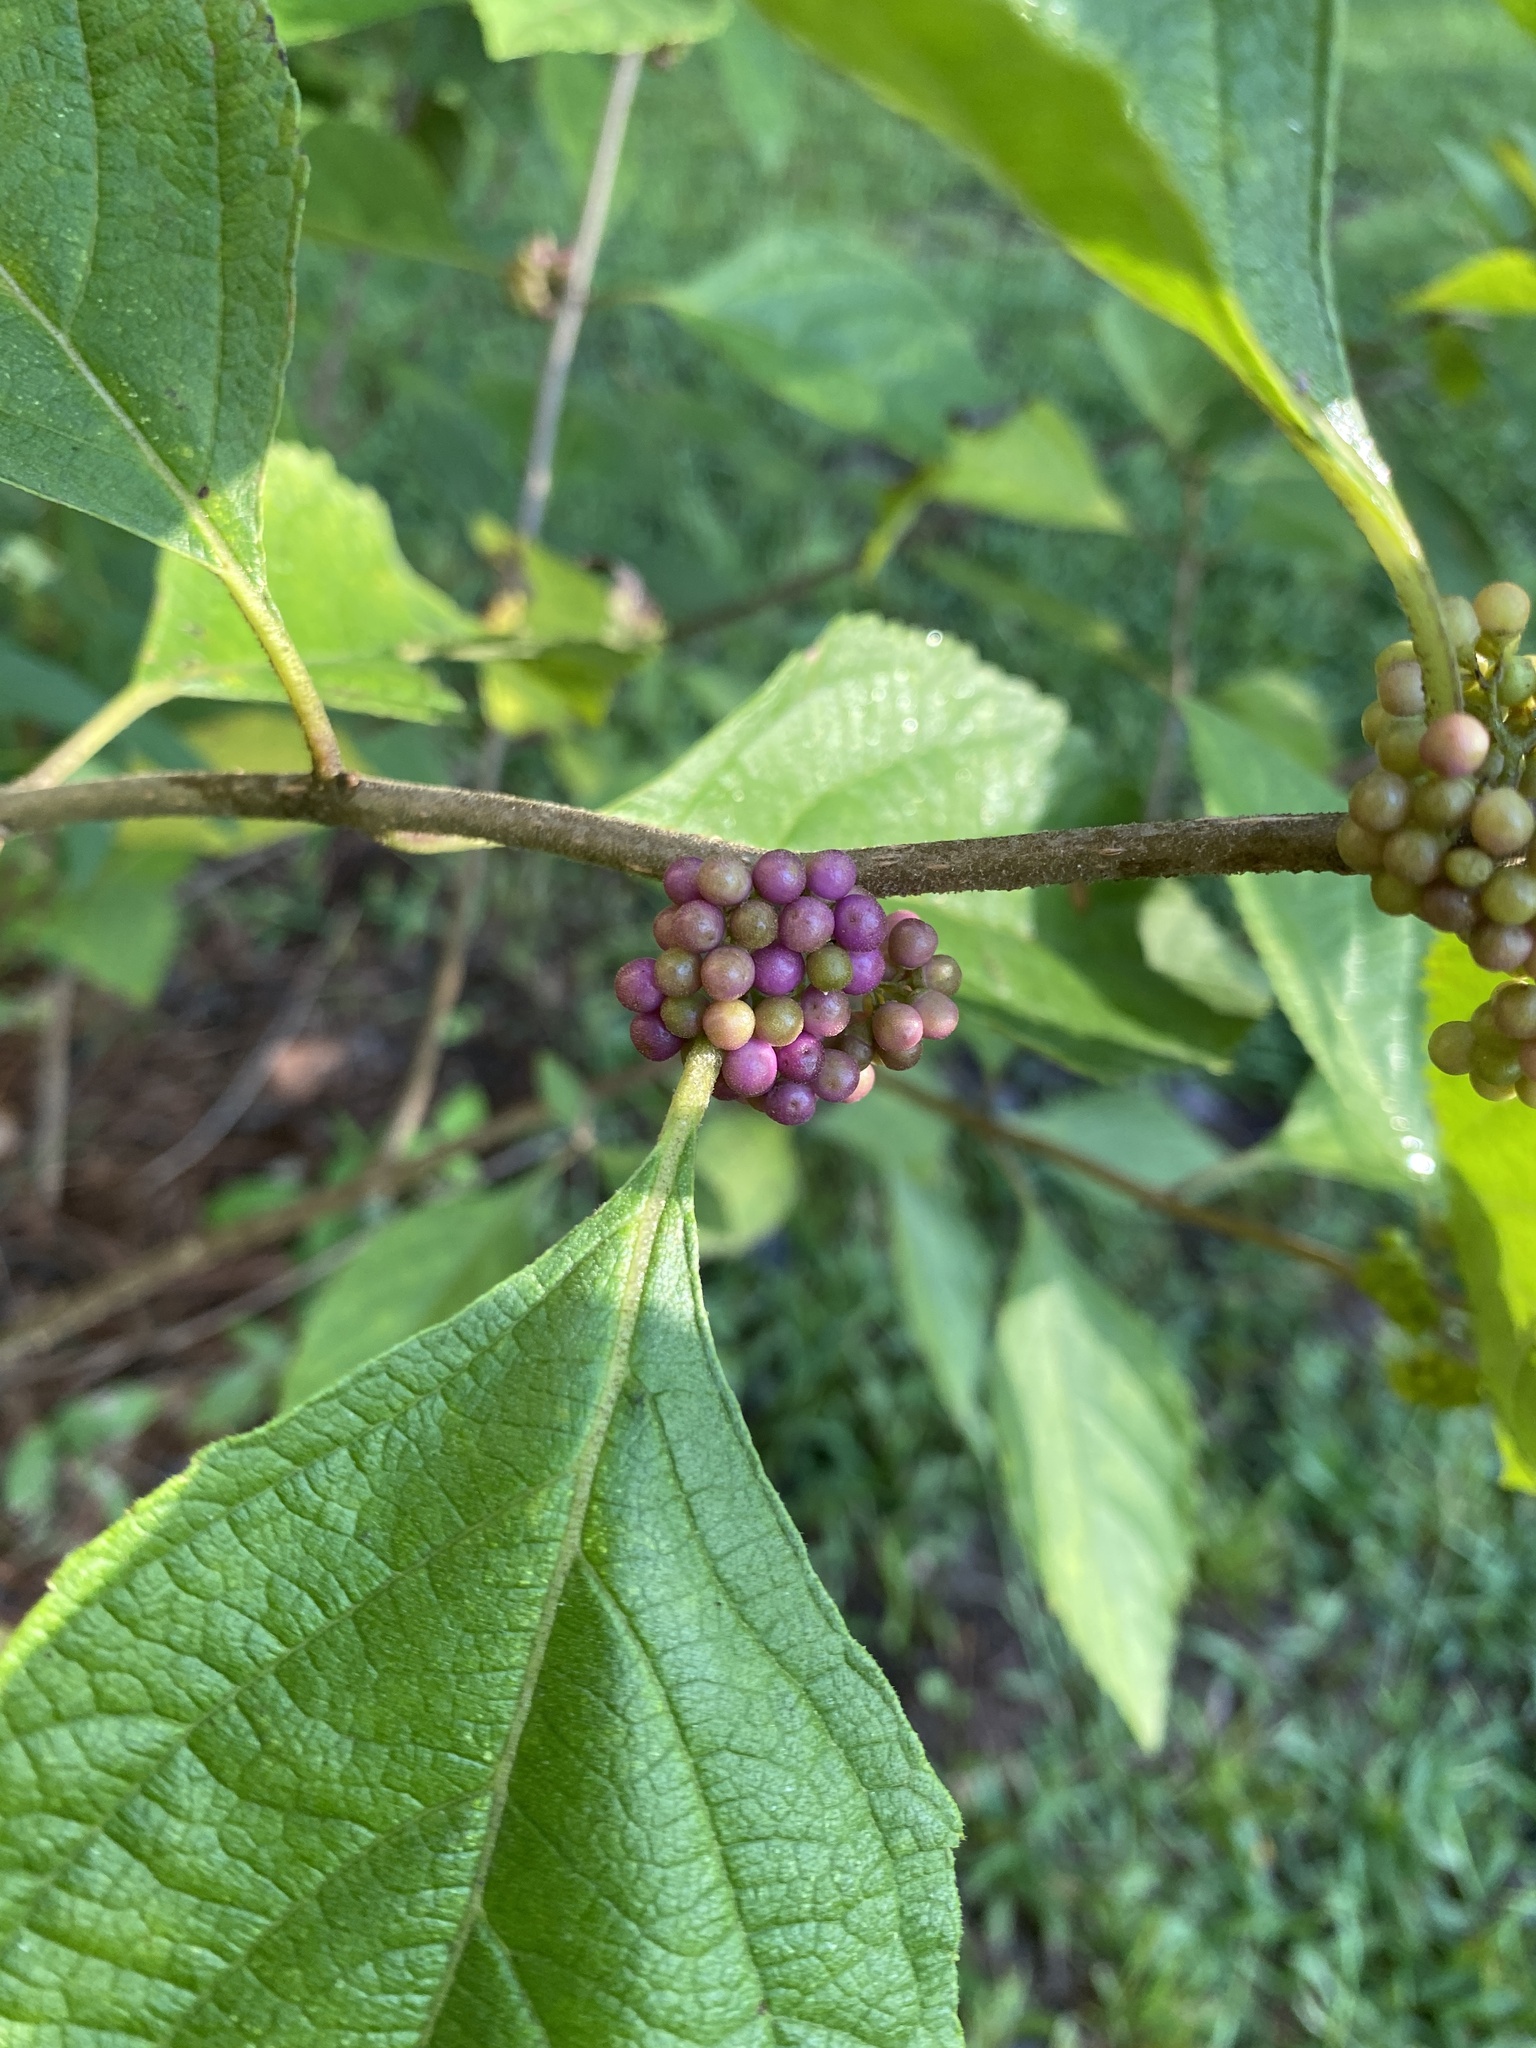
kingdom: Plantae
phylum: Tracheophyta
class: Magnoliopsida
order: Lamiales
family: Lamiaceae
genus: Callicarpa
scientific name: Callicarpa americana
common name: American beautyberry
